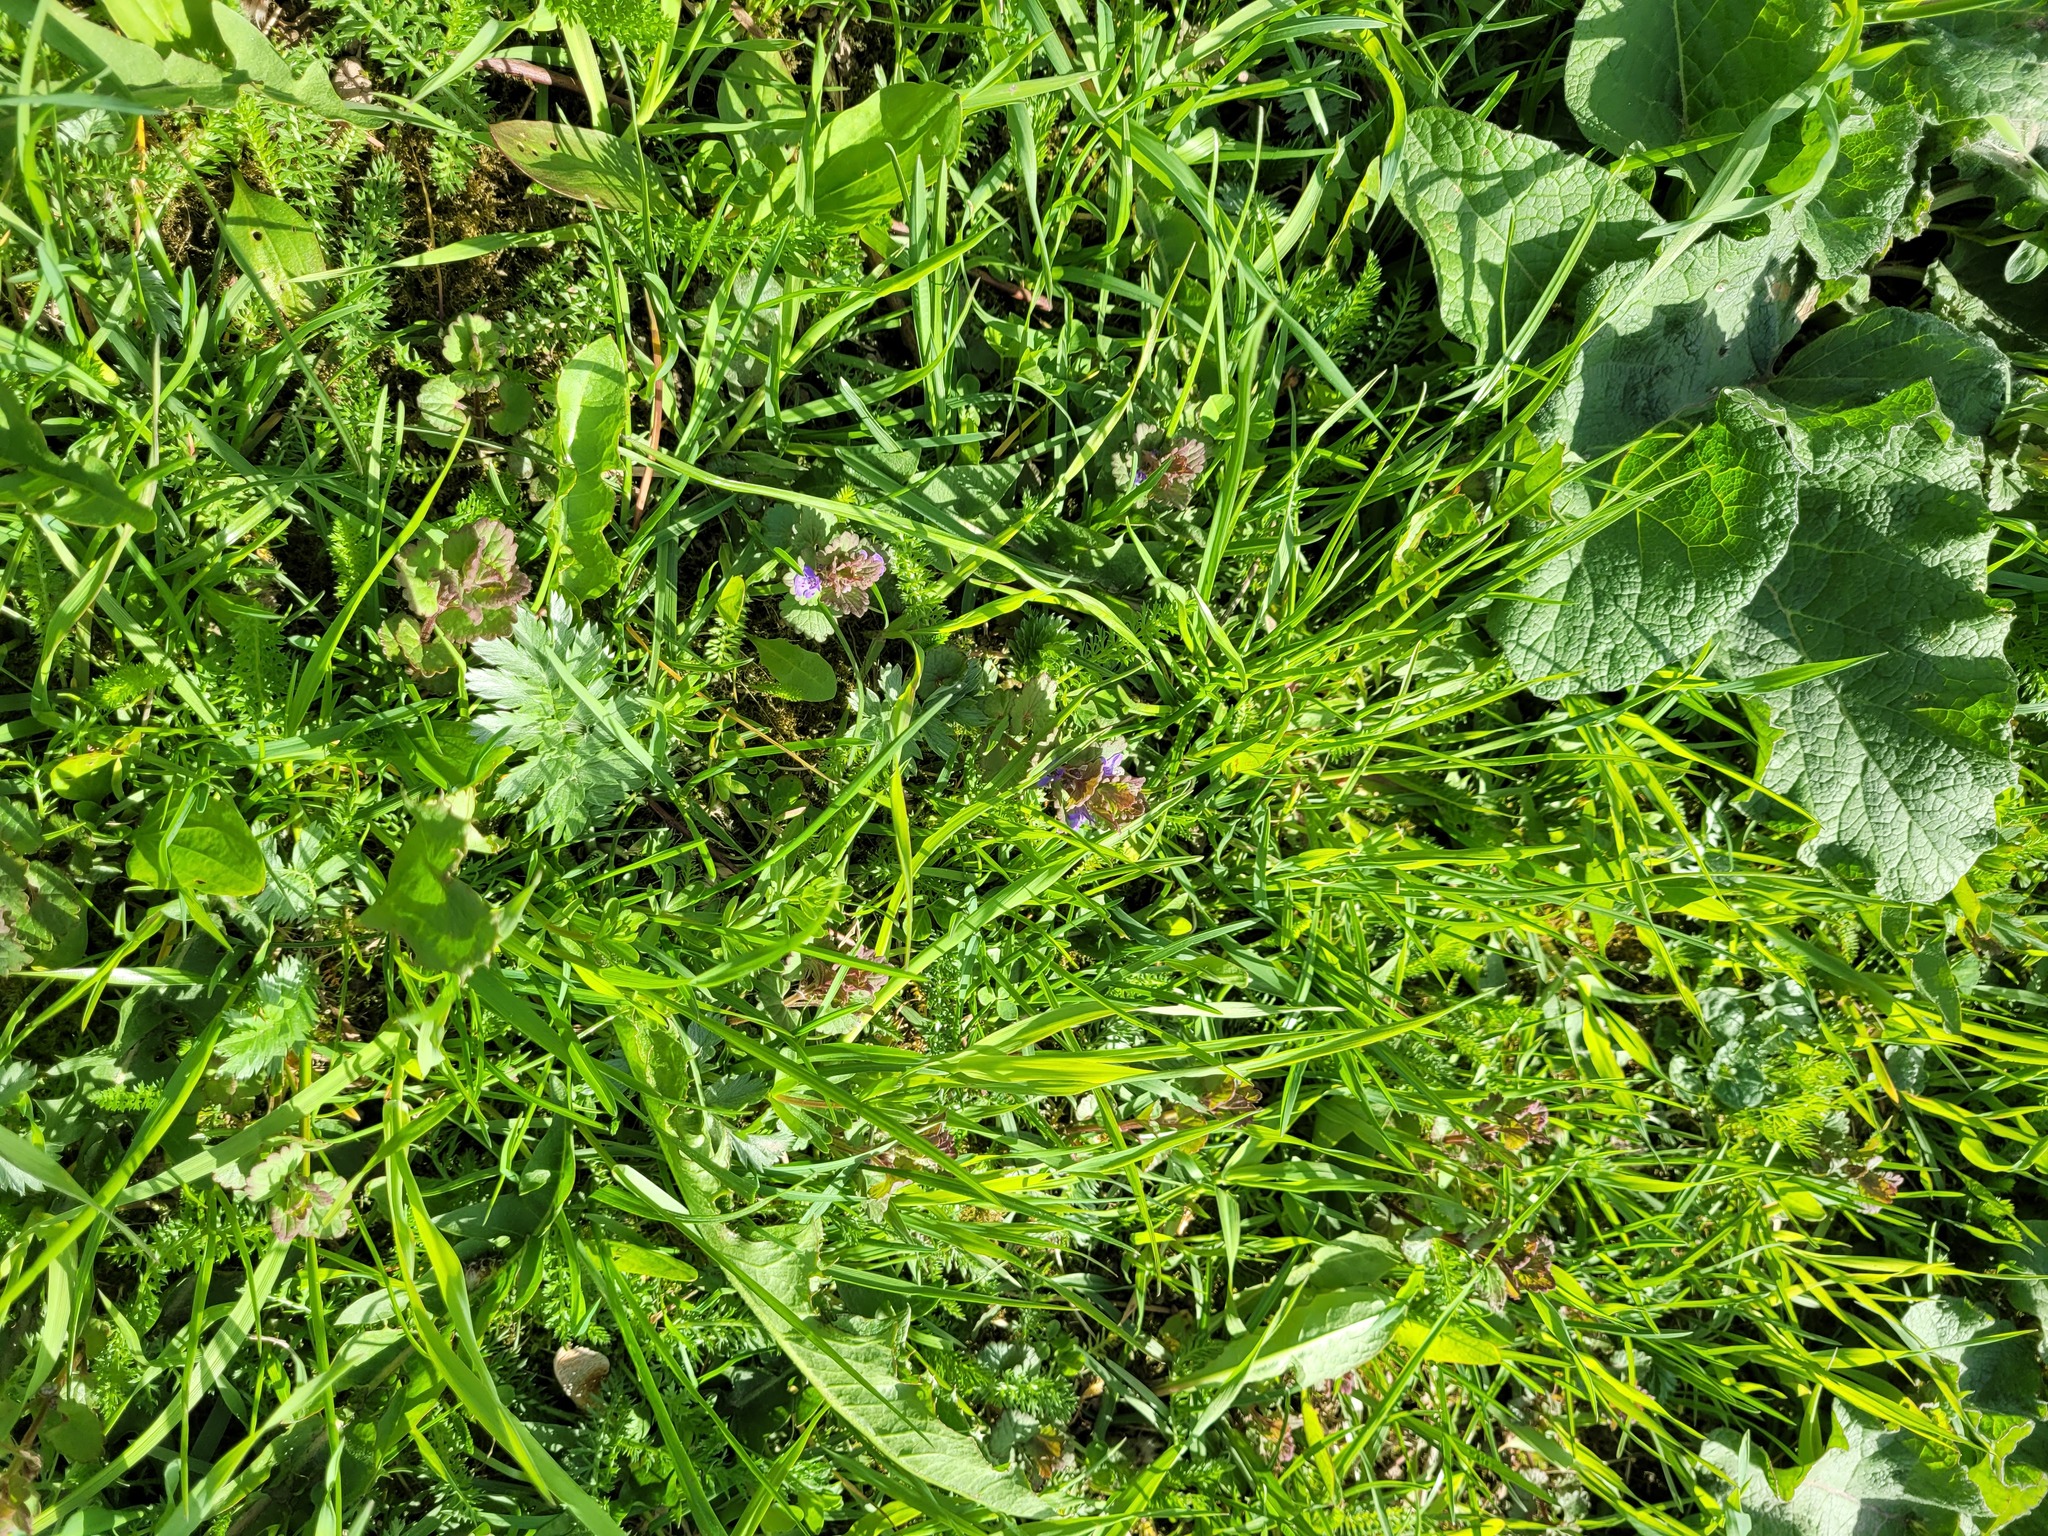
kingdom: Plantae
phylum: Tracheophyta
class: Magnoliopsida
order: Lamiales
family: Lamiaceae
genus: Glechoma
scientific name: Glechoma hederacea
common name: Ground ivy
